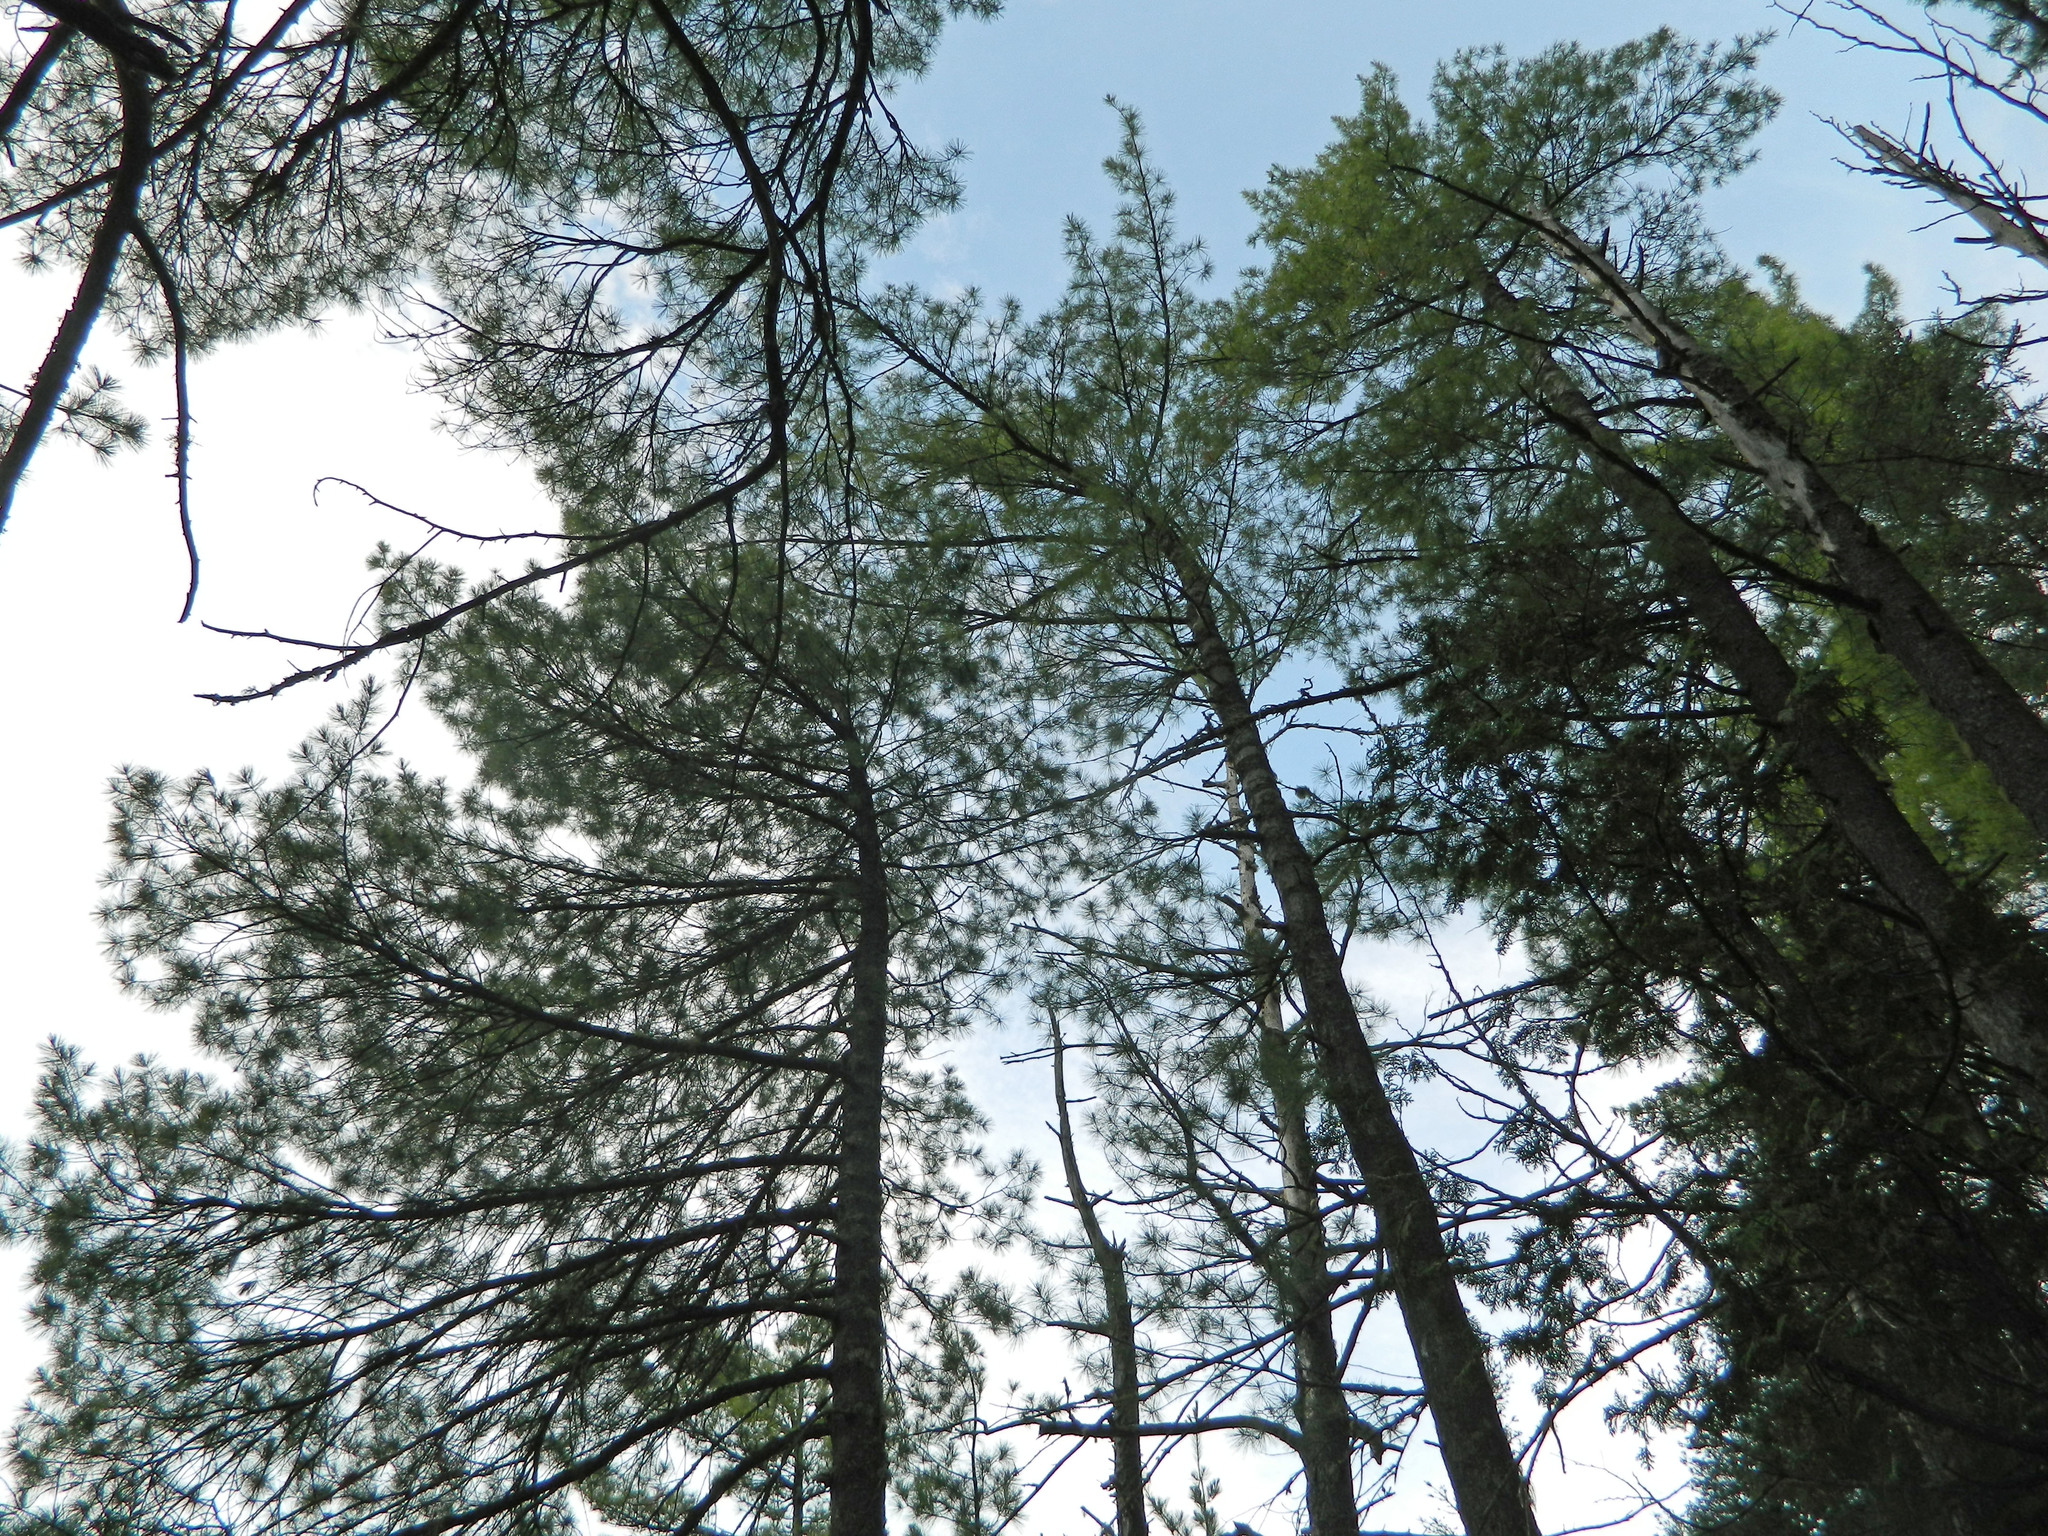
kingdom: Plantae
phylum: Tracheophyta
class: Pinopsida
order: Pinales
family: Pinaceae
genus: Pinus
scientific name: Pinus strobus
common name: Weymouth pine
